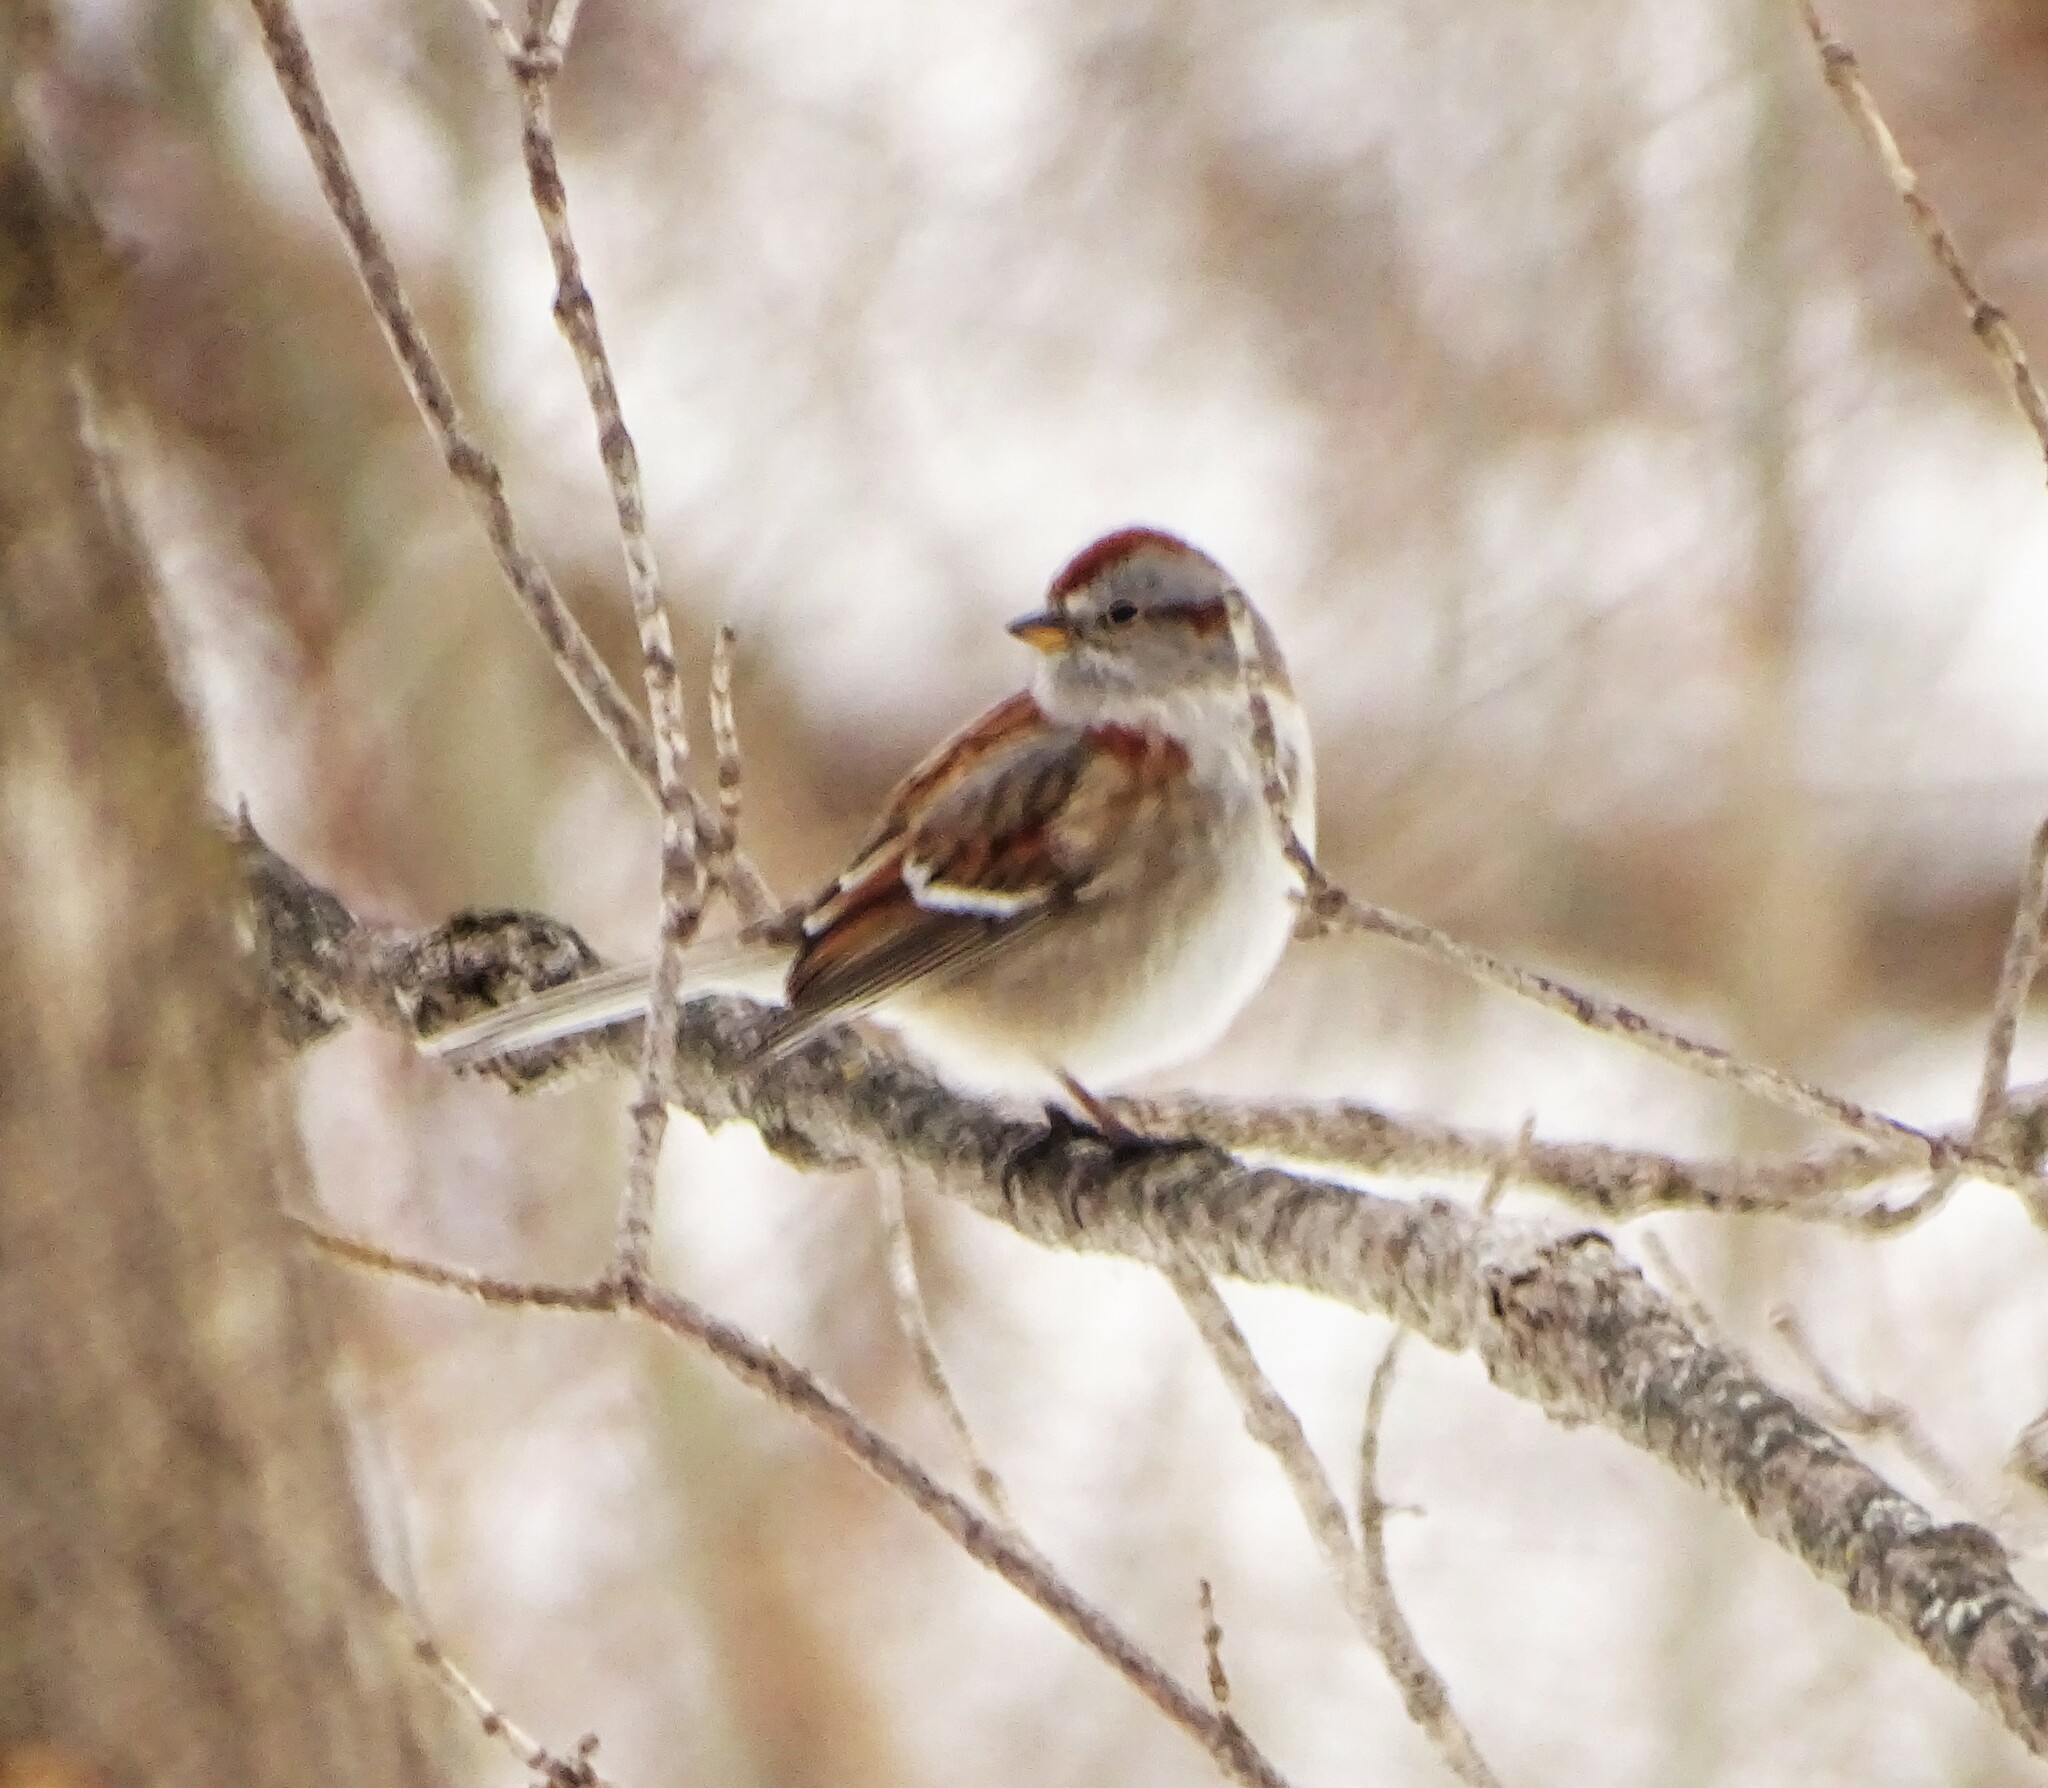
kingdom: Animalia
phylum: Chordata
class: Aves
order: Passeriformes
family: Passerellidae
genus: Spizelloides
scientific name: Spizelloides arborea
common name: American tree sparrow
